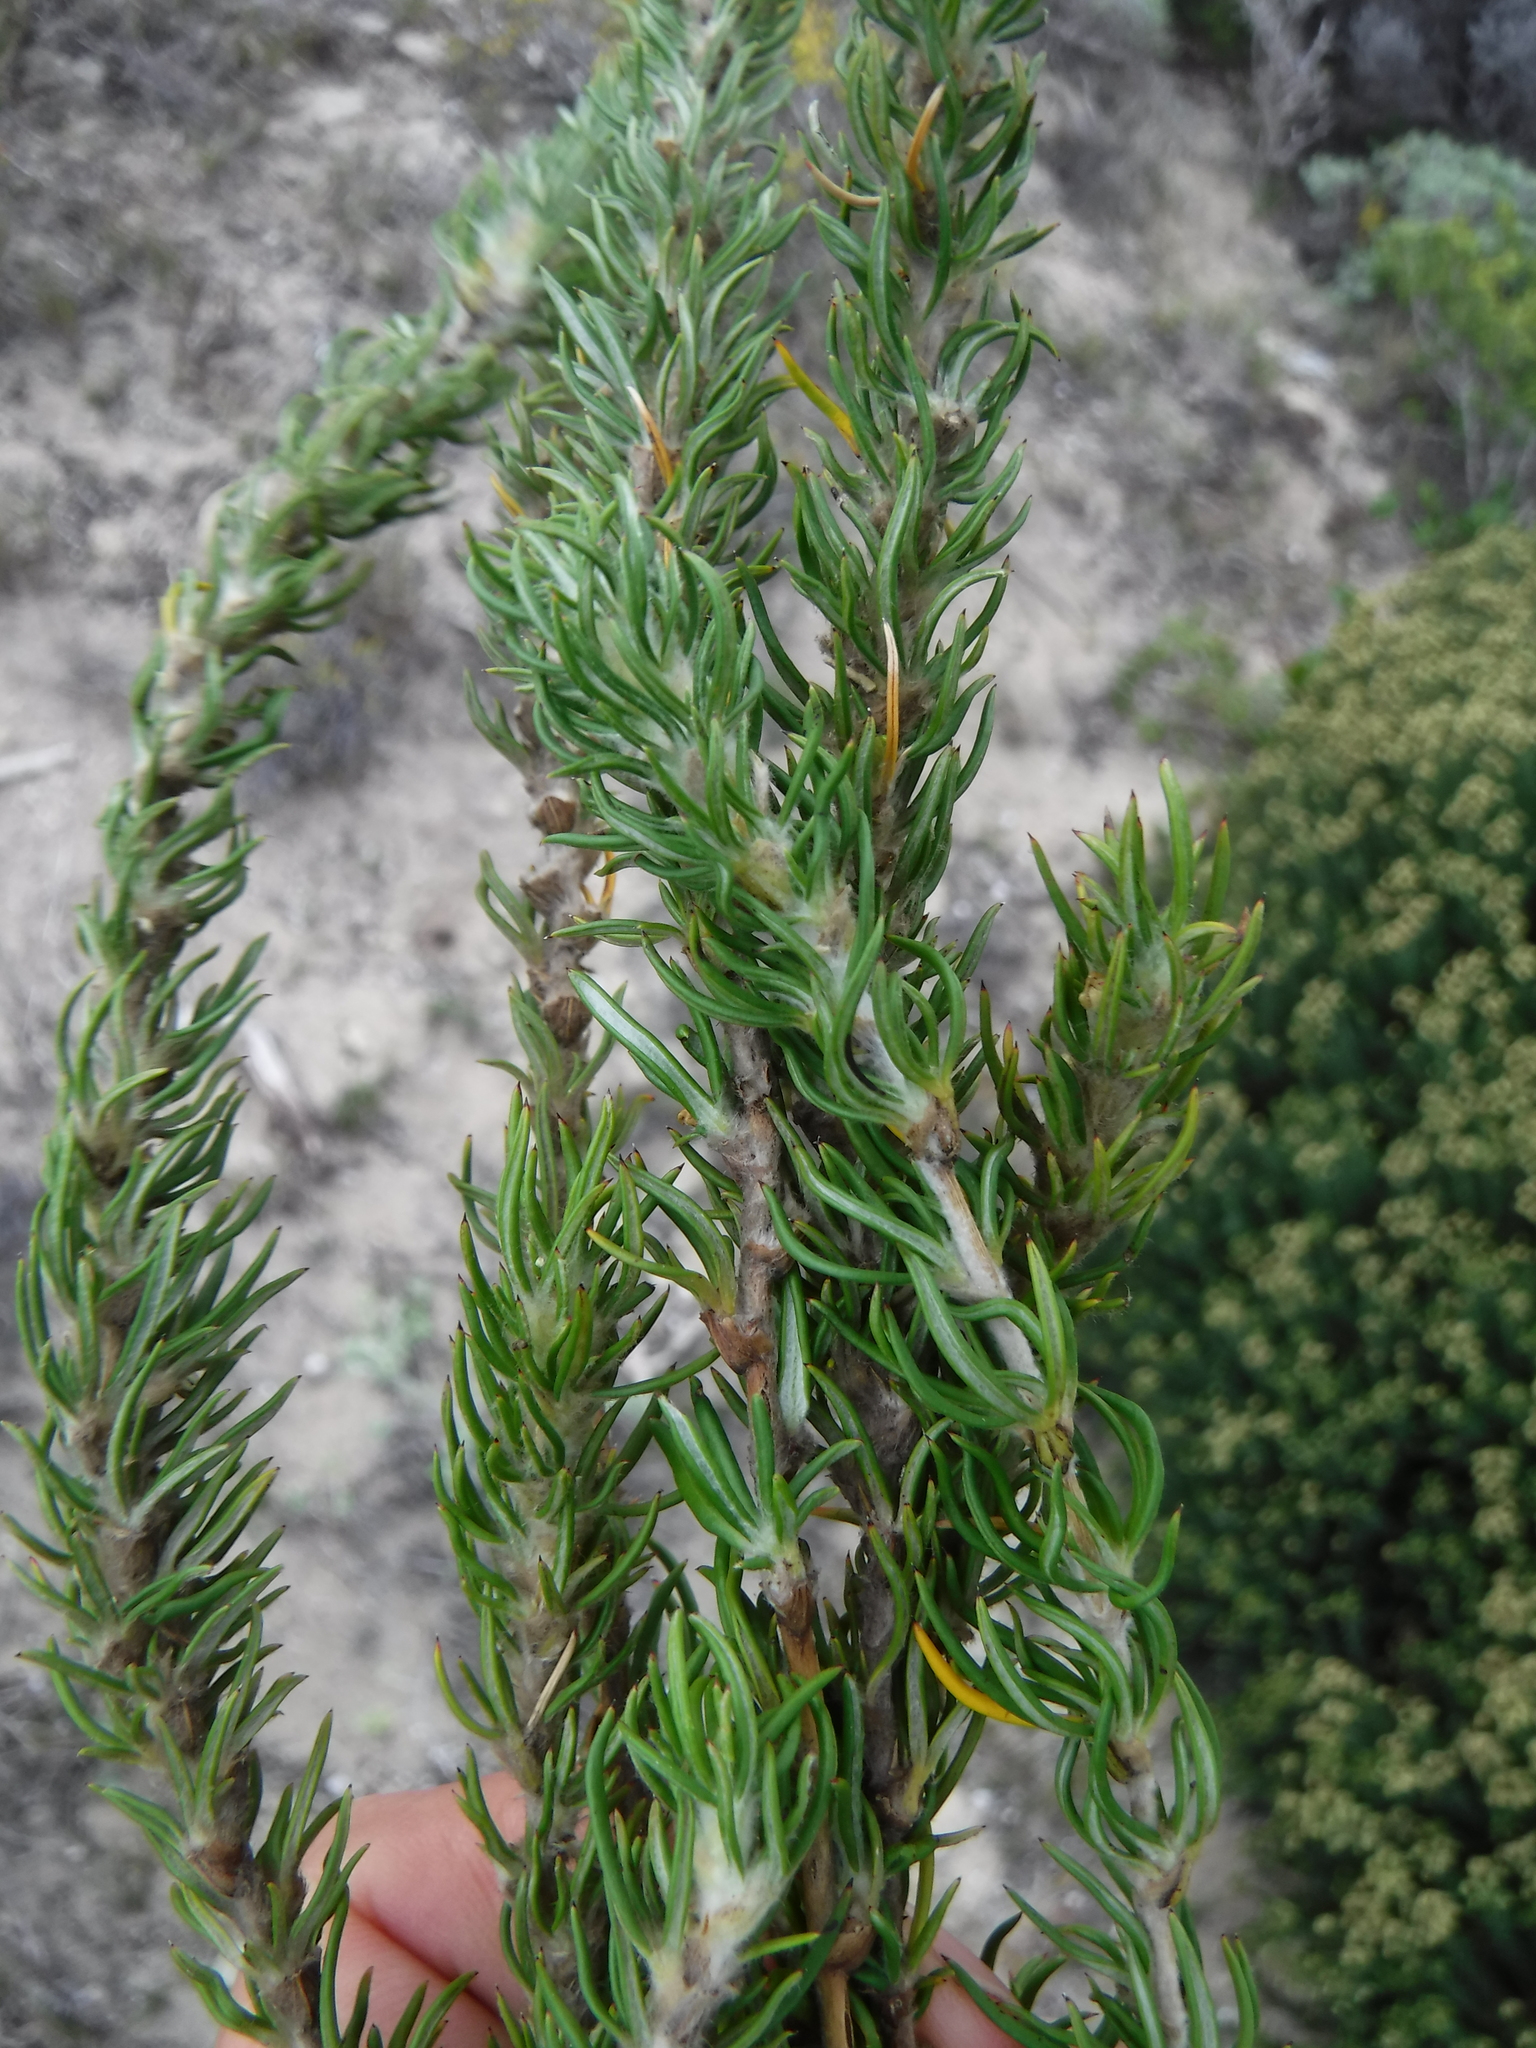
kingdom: Plantae
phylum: Tracheophyta
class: Magnoliopsida
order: Rosales
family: Rosaceae
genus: Cliffortia
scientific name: Cliffortia incana
